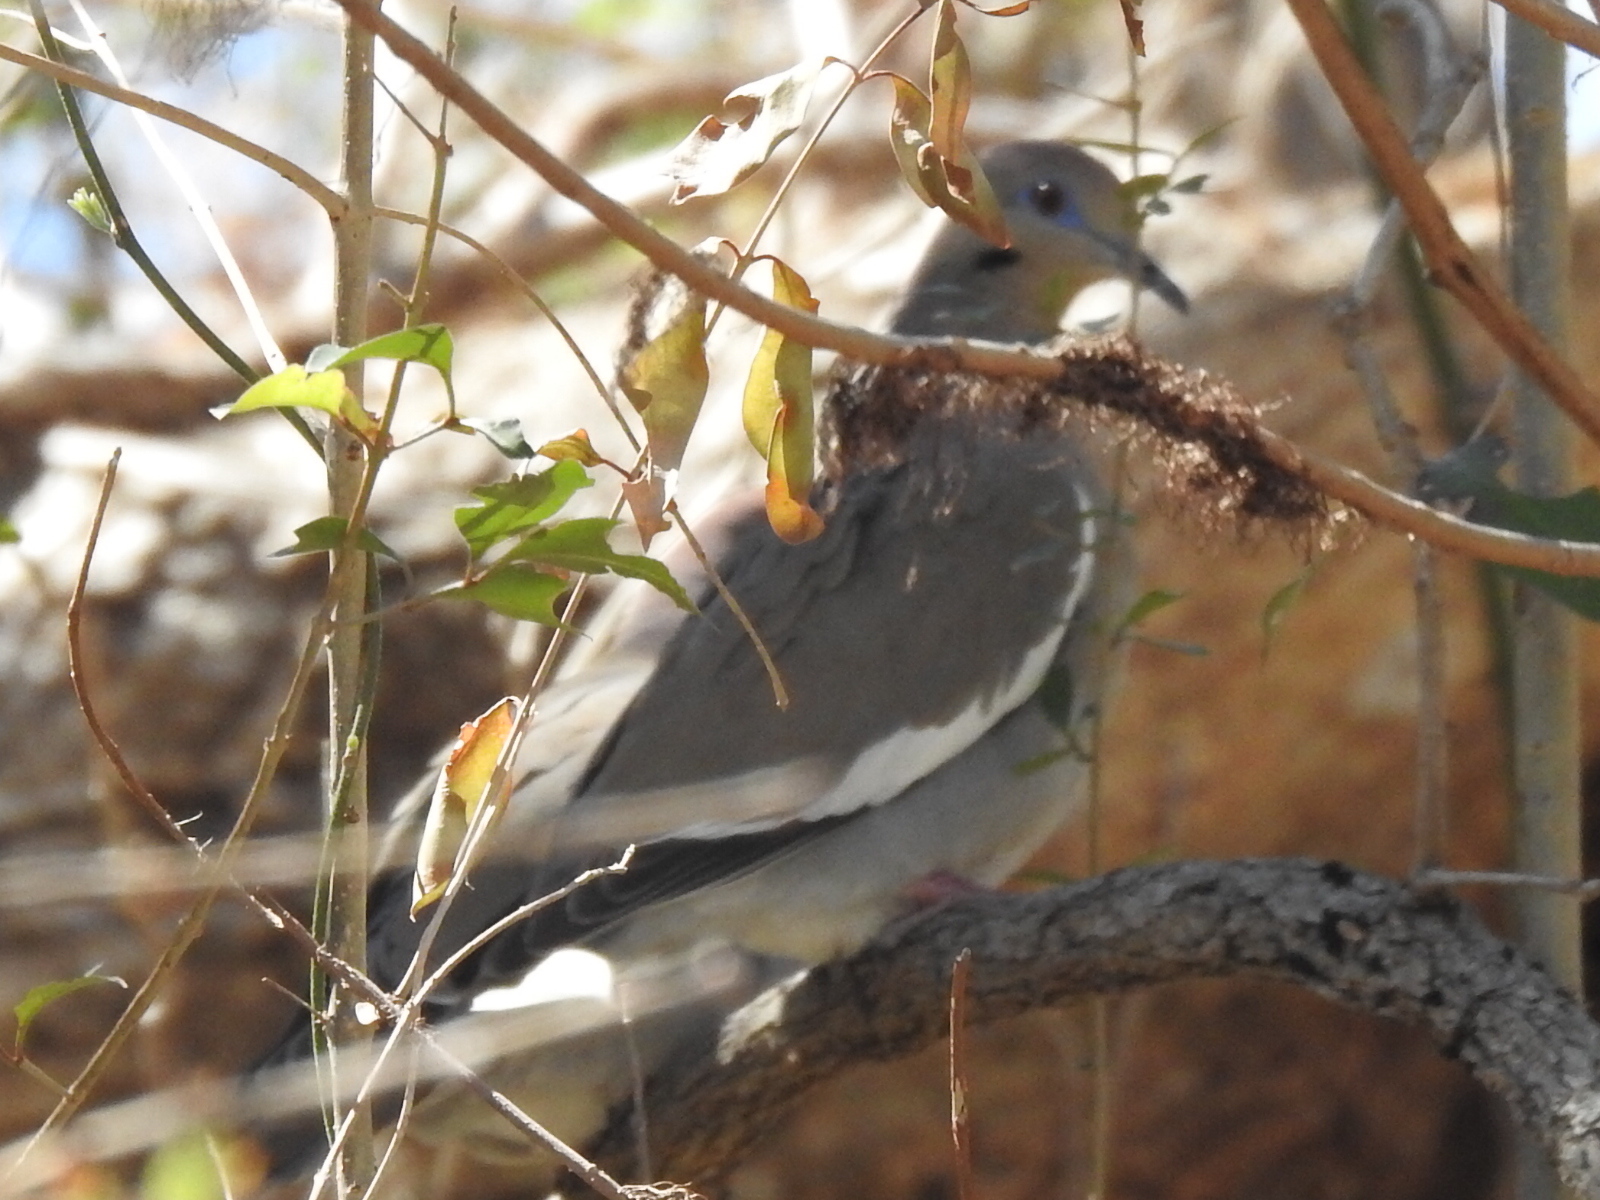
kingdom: Animalia
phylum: Chordata
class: Aves
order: Columbiformes
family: Columbidae
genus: Zenaida
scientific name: Zenaida asiatica
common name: White-winged dove
